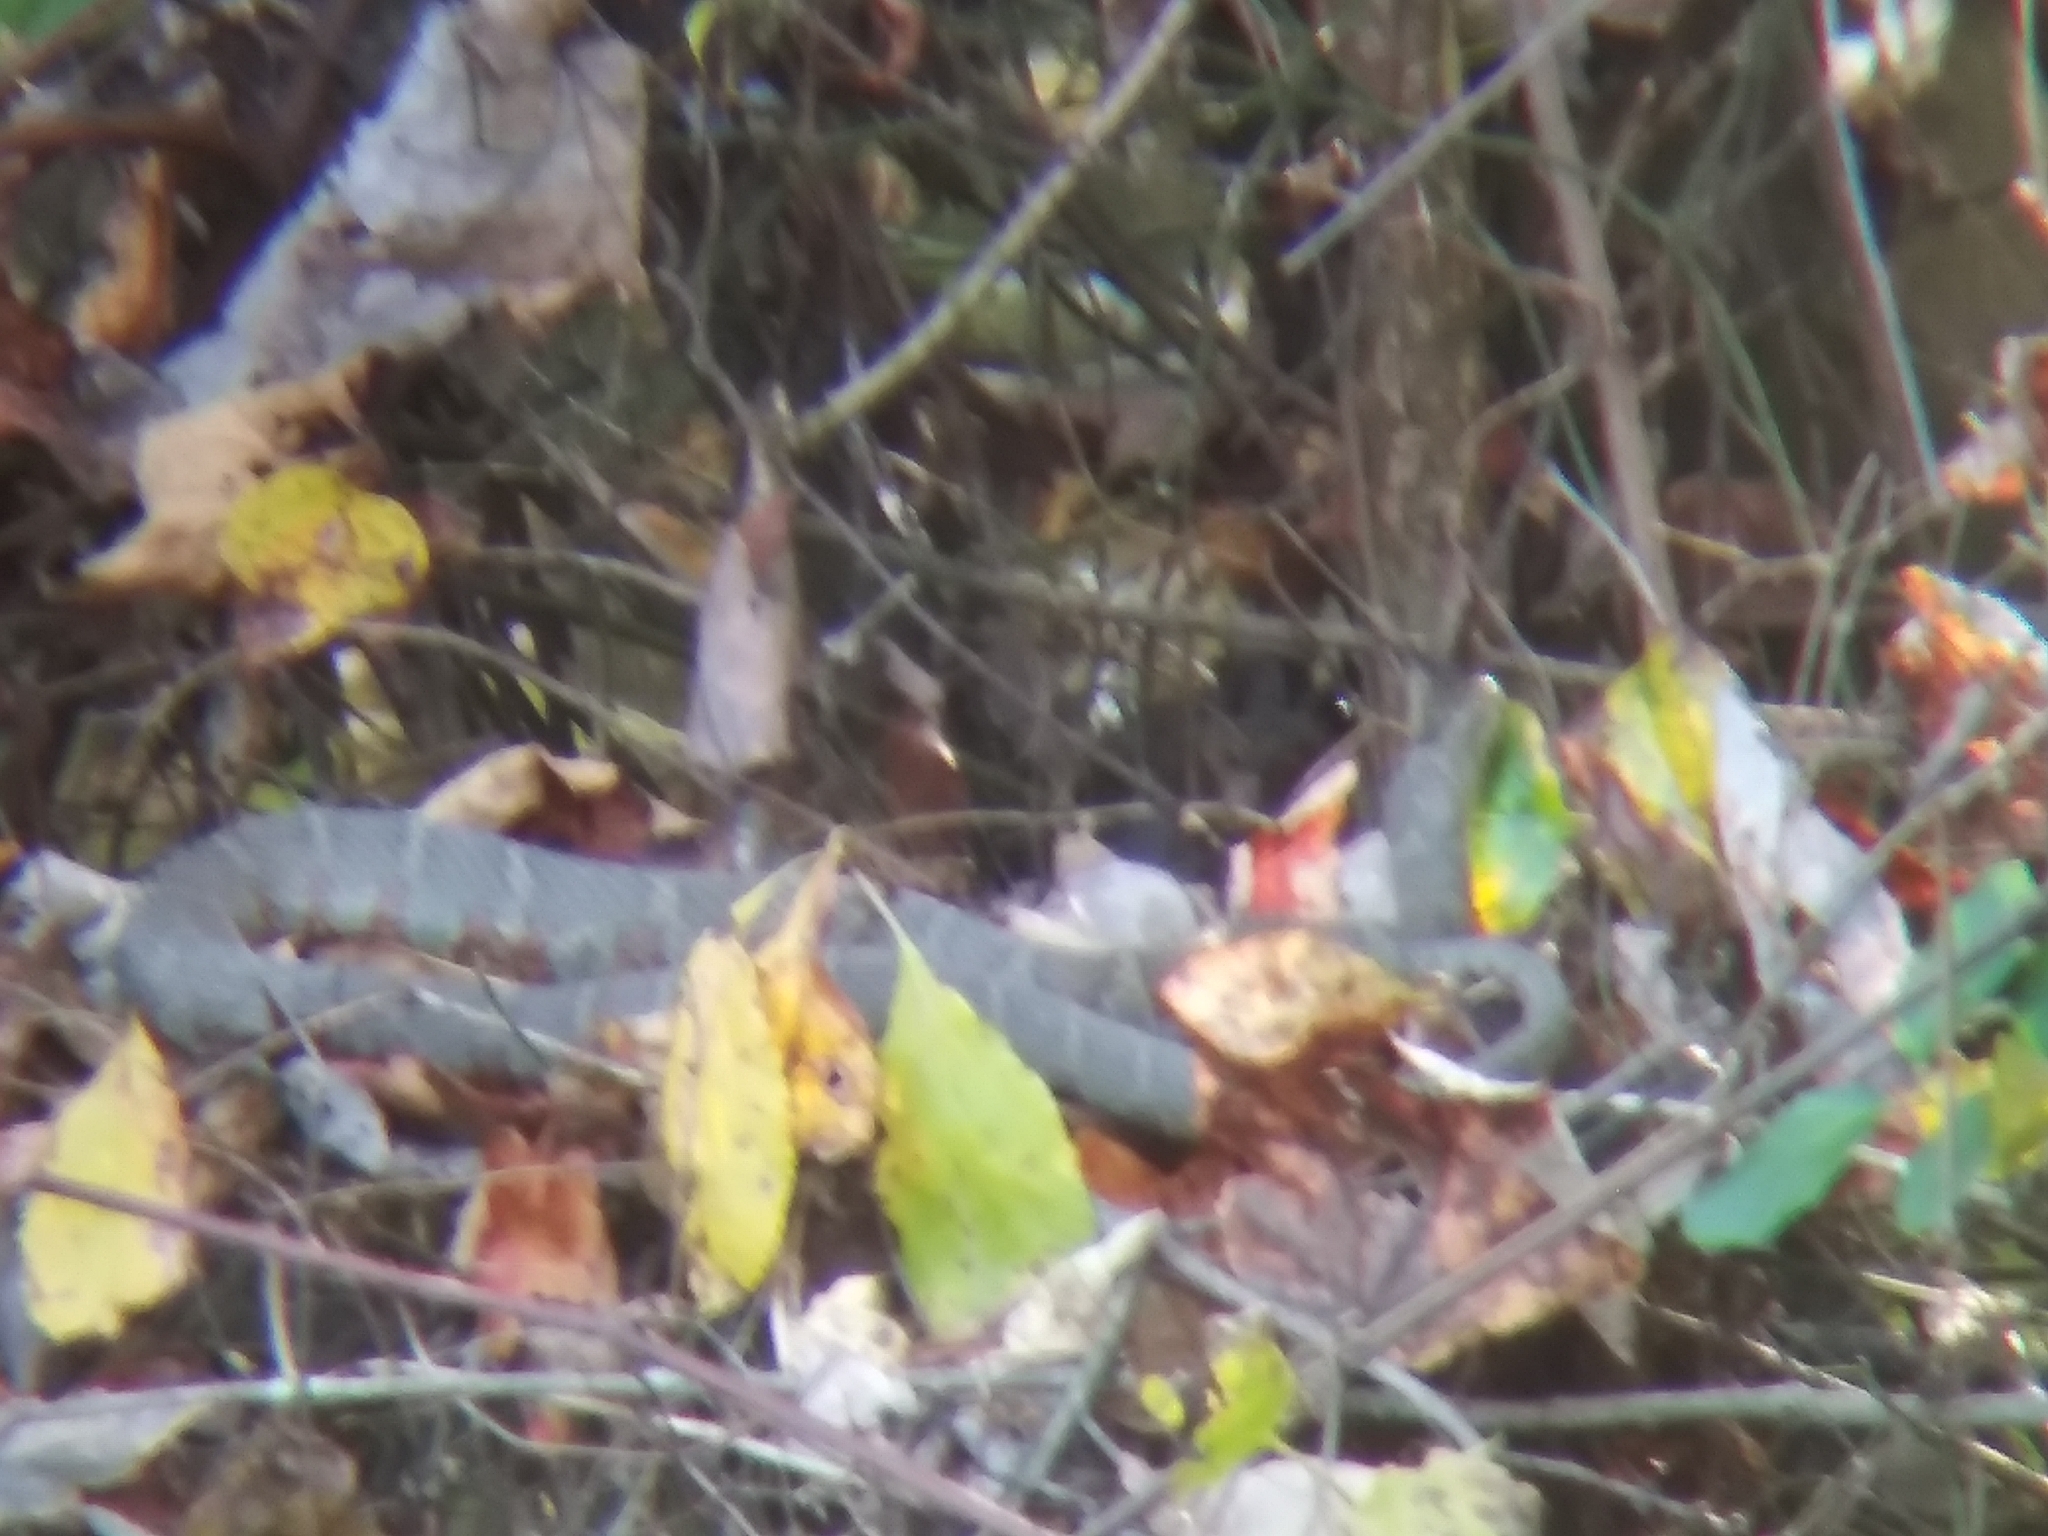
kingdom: Animalia
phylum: Chordata
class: Squamata
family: Colubridae
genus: Nerodia
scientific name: Nerodia sipedon
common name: Northern water snake
